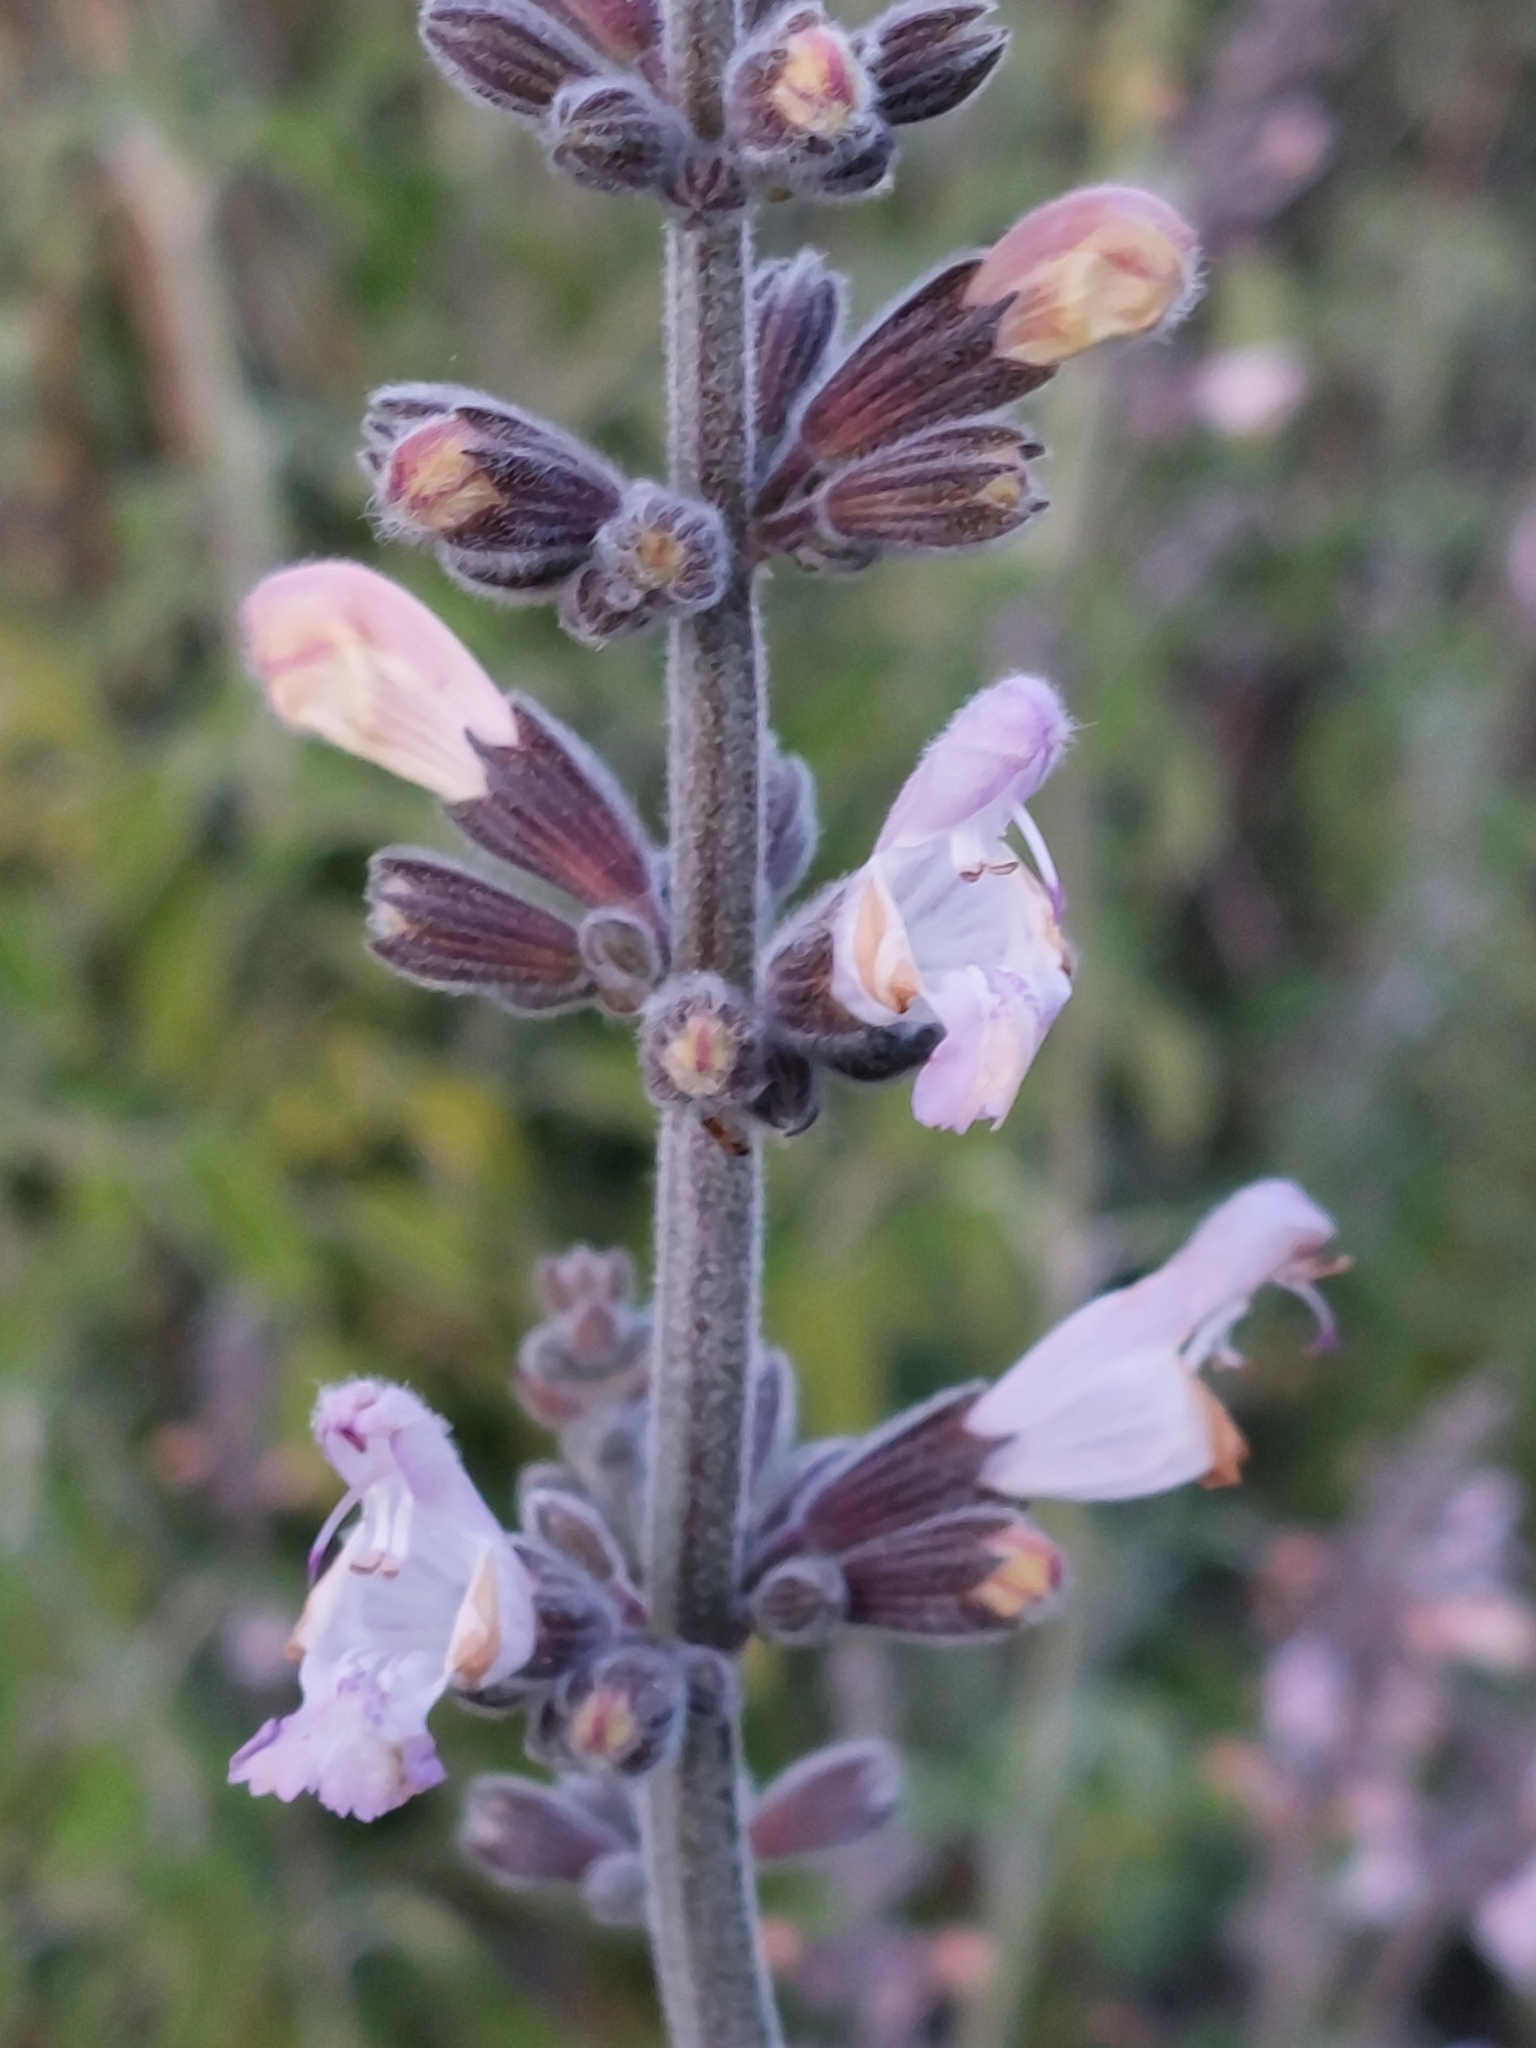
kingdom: Plantae
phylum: Tracheophyta
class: Magnoliopsida
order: Lamiales
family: Lamiaceae
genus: Salvia
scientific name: Salvia fruticosa
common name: Greek sage
